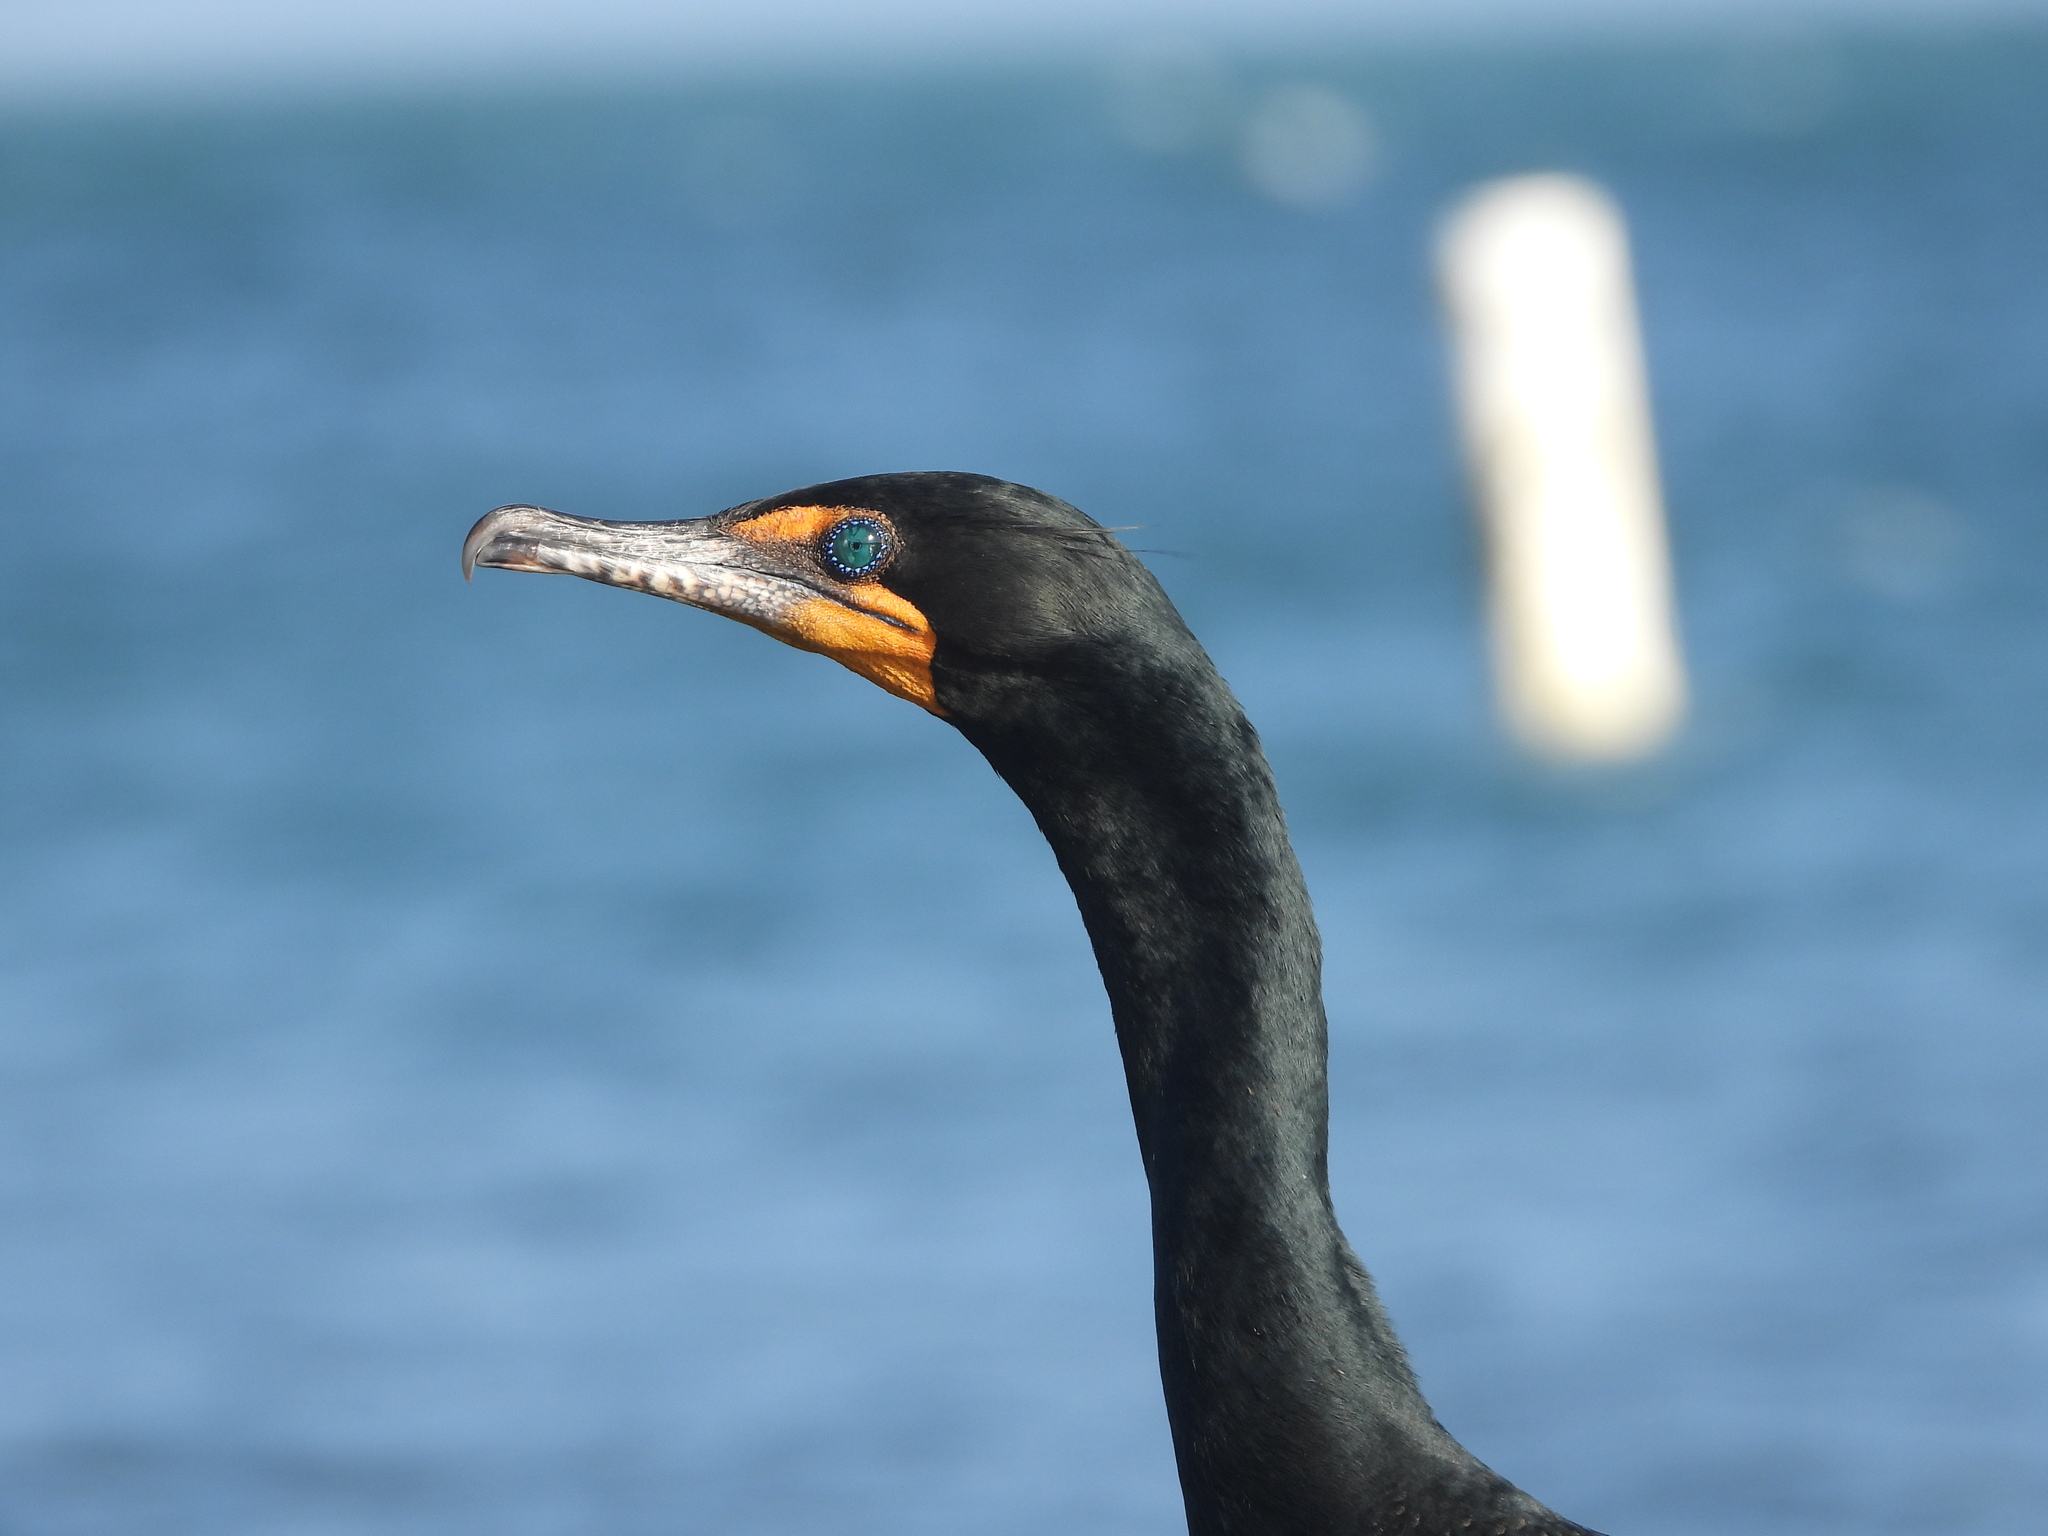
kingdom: Animalia
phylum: Chordata
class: Aves
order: Suliformes
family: Phalacrocoracidae
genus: Phalacrocorax
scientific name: Phalacrocorax auritus
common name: Double-crested cormorant
